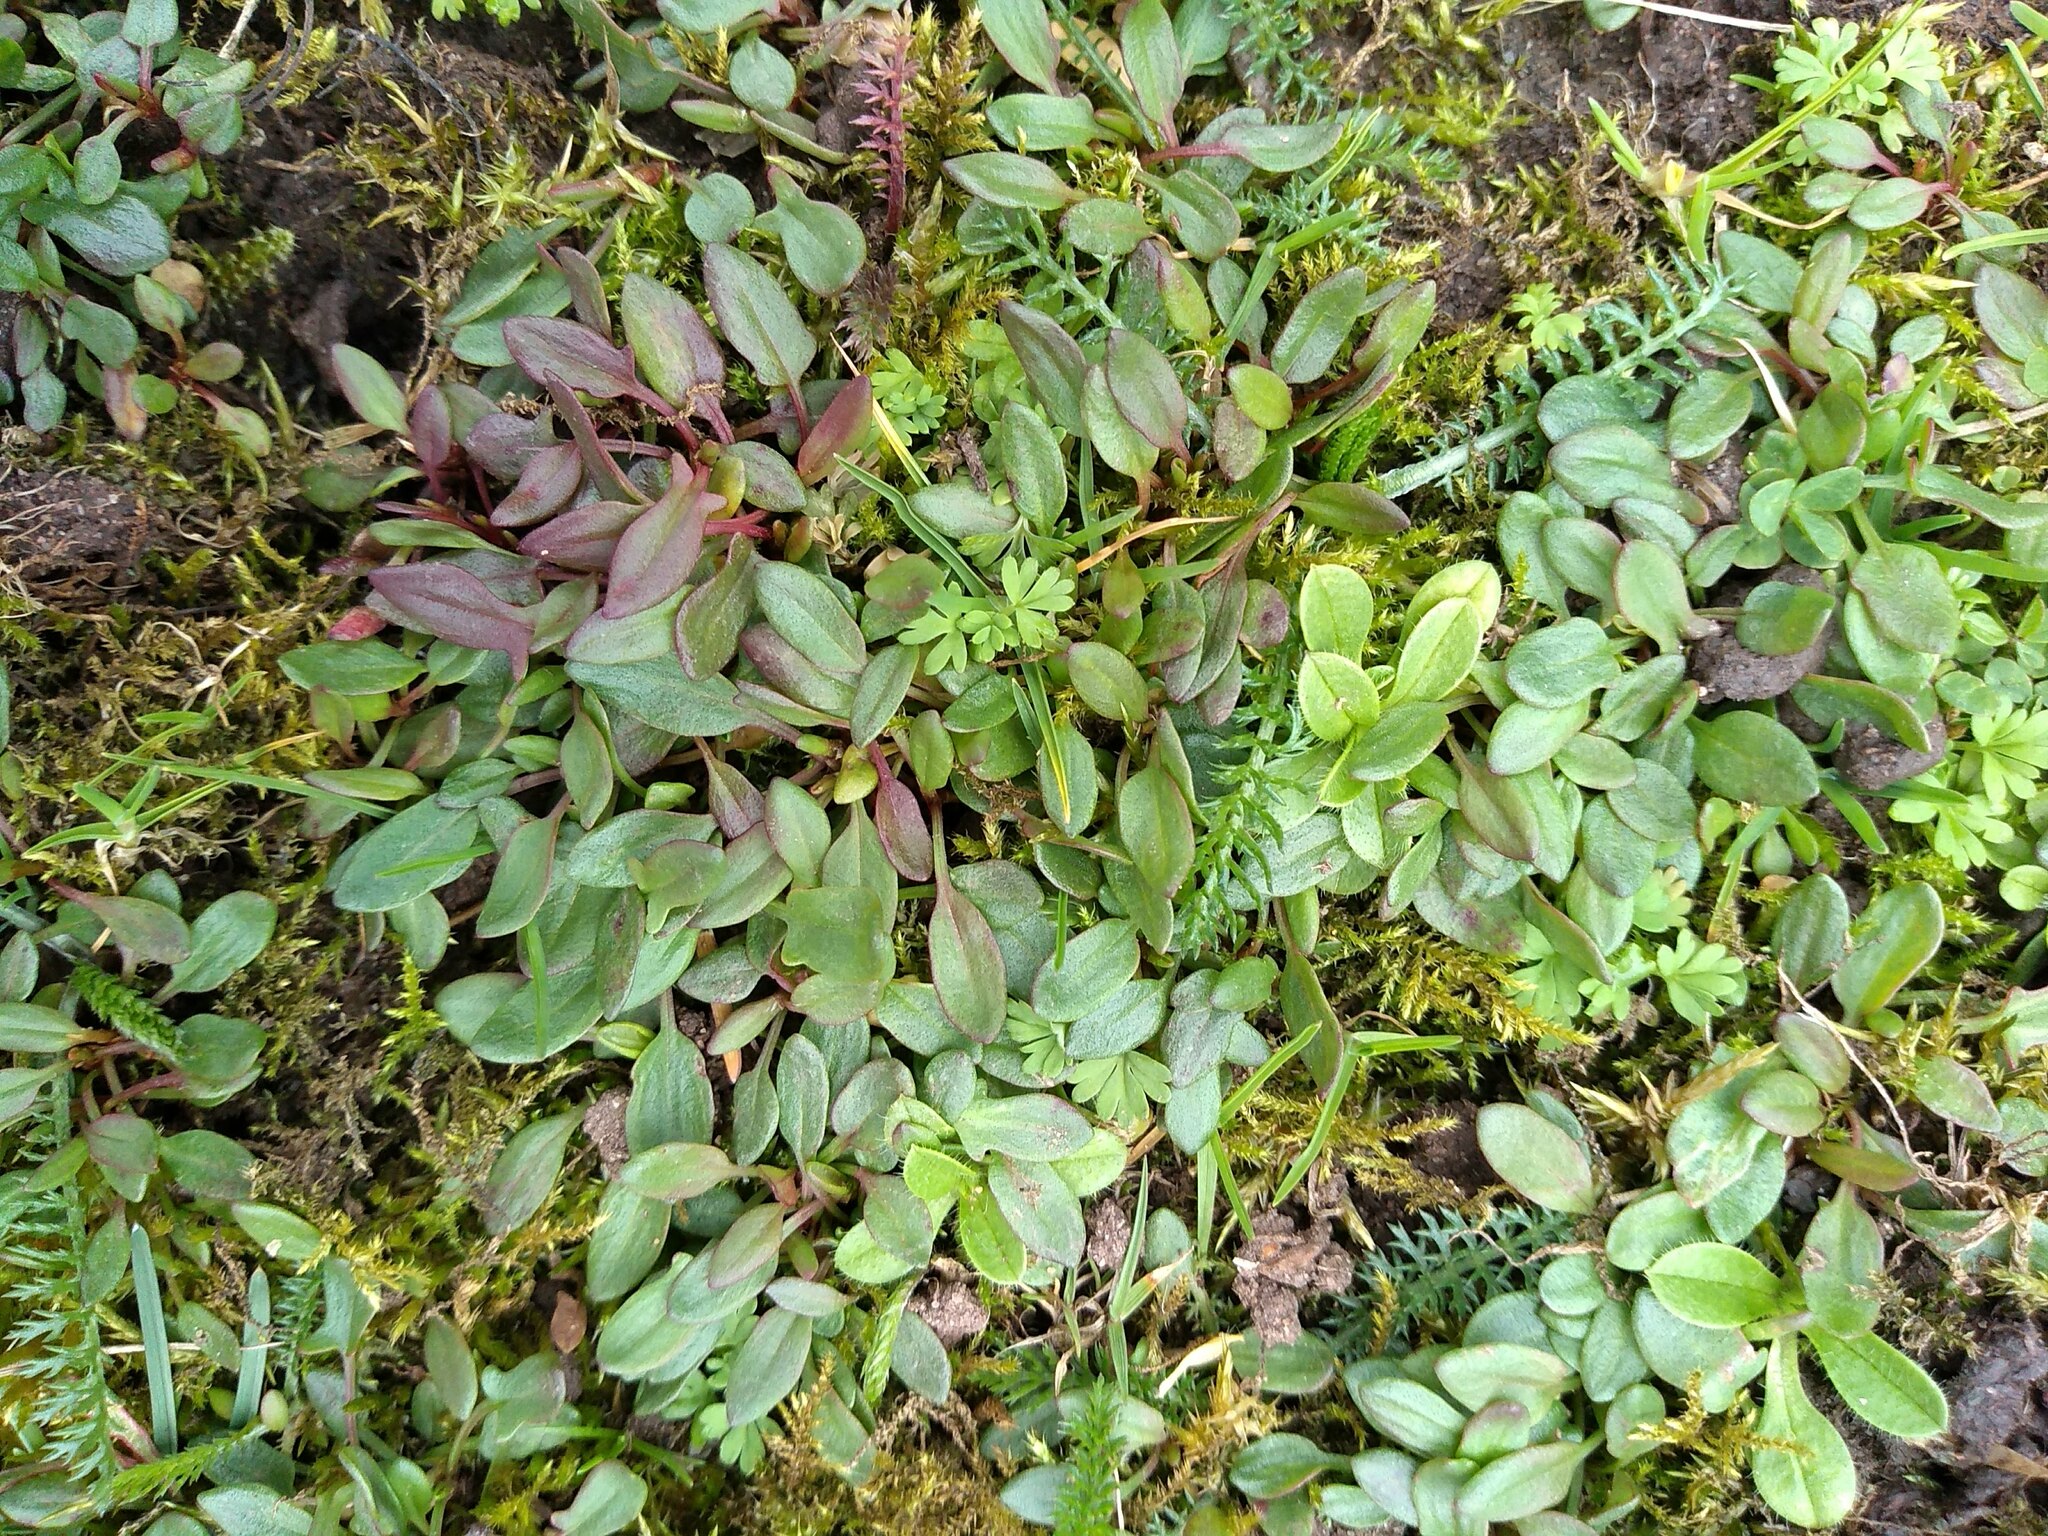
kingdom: Plantae
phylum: Tracheophyta
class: Magnoliopsida
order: Caryophyllales
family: Polygonaceae
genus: Rumex
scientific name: Rumex acetosella
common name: Common sheep sorrel
